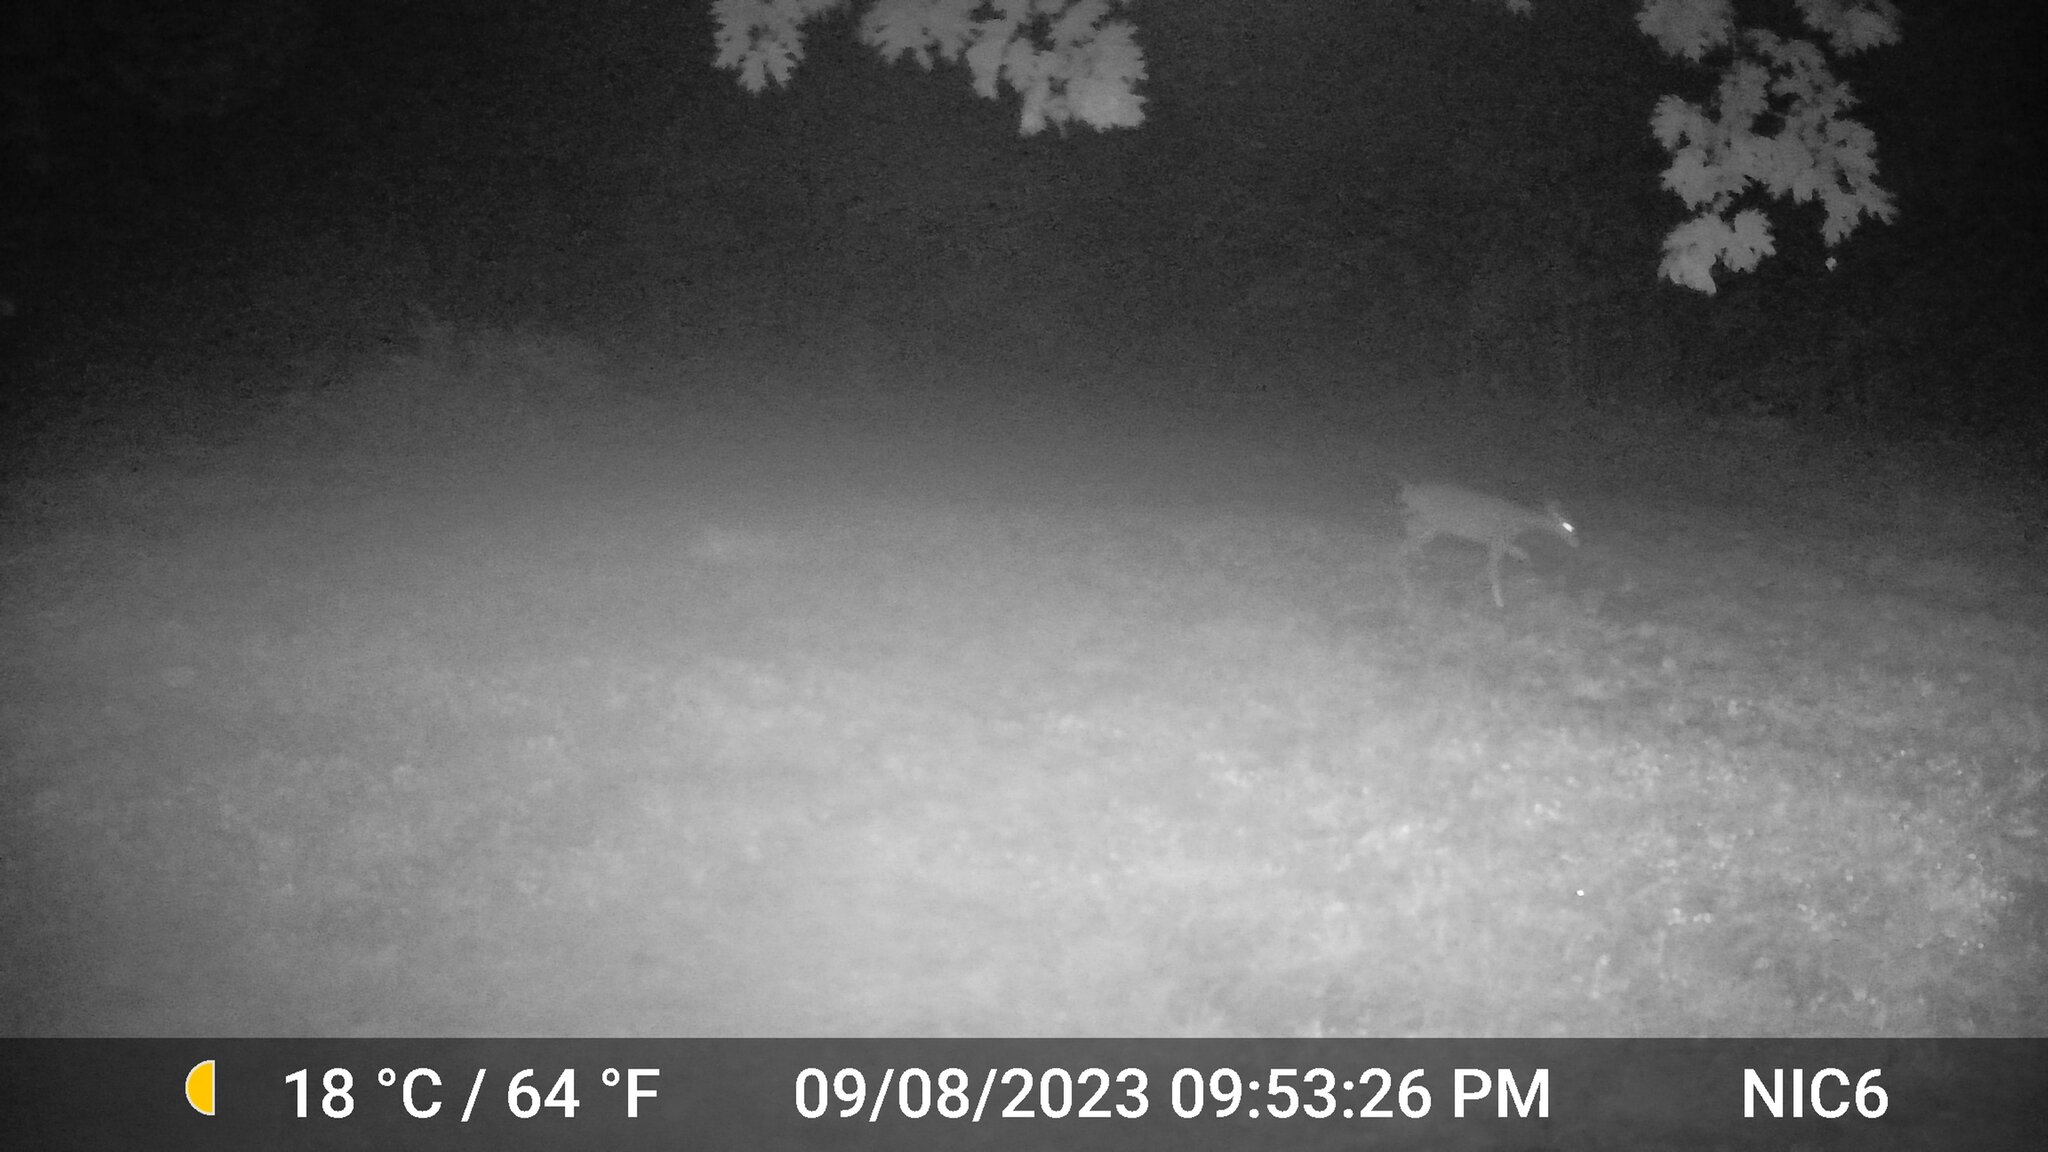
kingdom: Animalia
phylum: Chordata
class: Mammalia
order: Artiodactyla
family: Cervidae
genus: Odocoileus
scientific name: Odocoileus virginianus
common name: White-tailed deer
